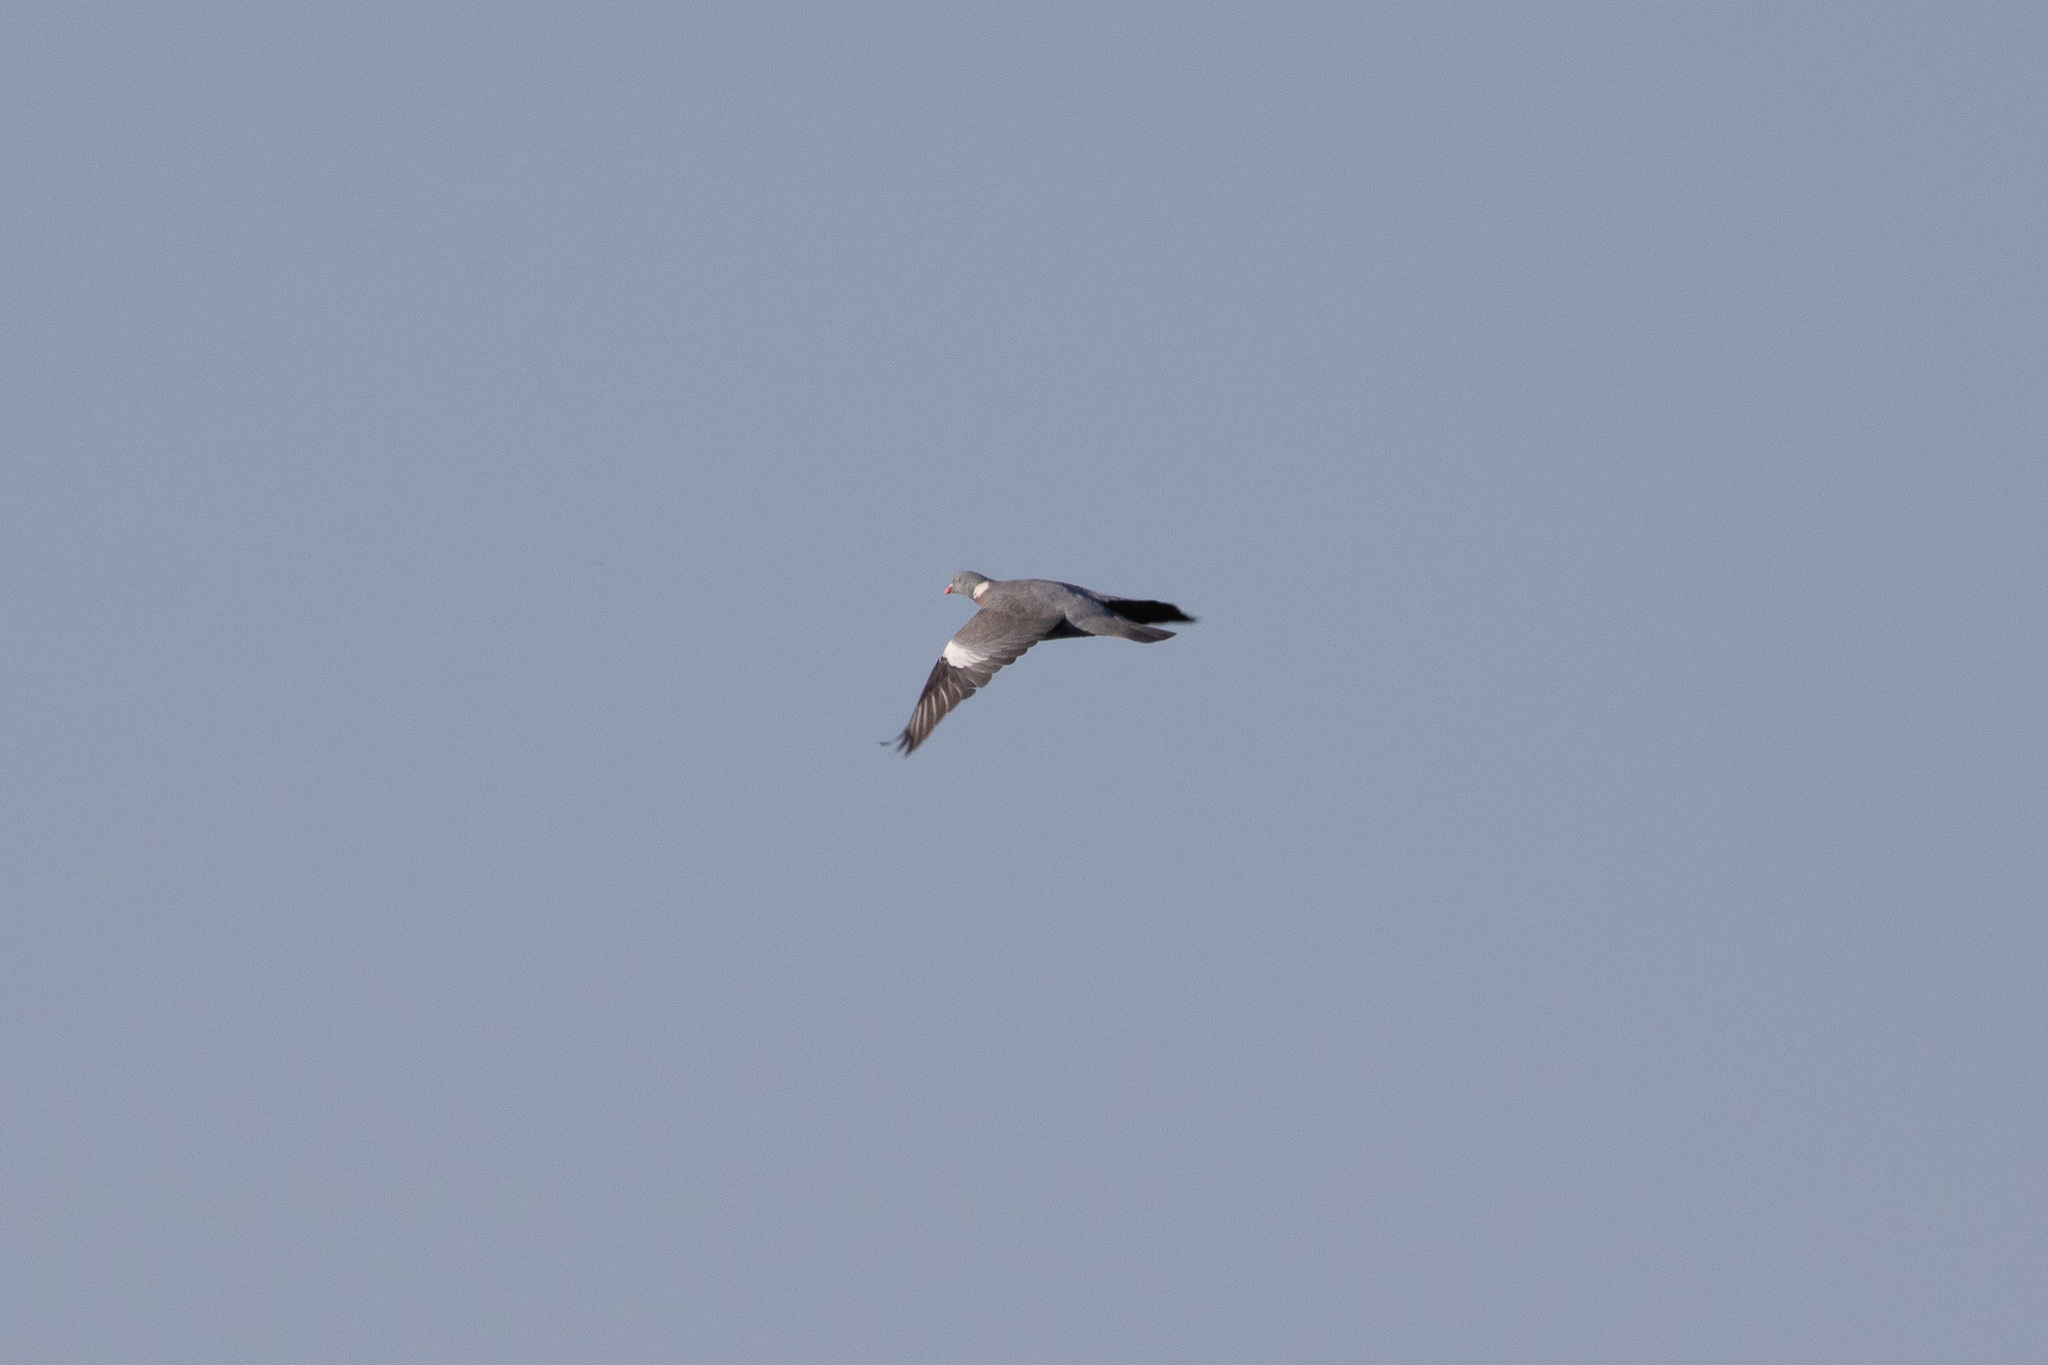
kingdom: Animalia
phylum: Chordata
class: Aves
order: Columbiformes
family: Columbidae
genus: Columba
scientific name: Columba palumbus
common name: Common wood pigeon
